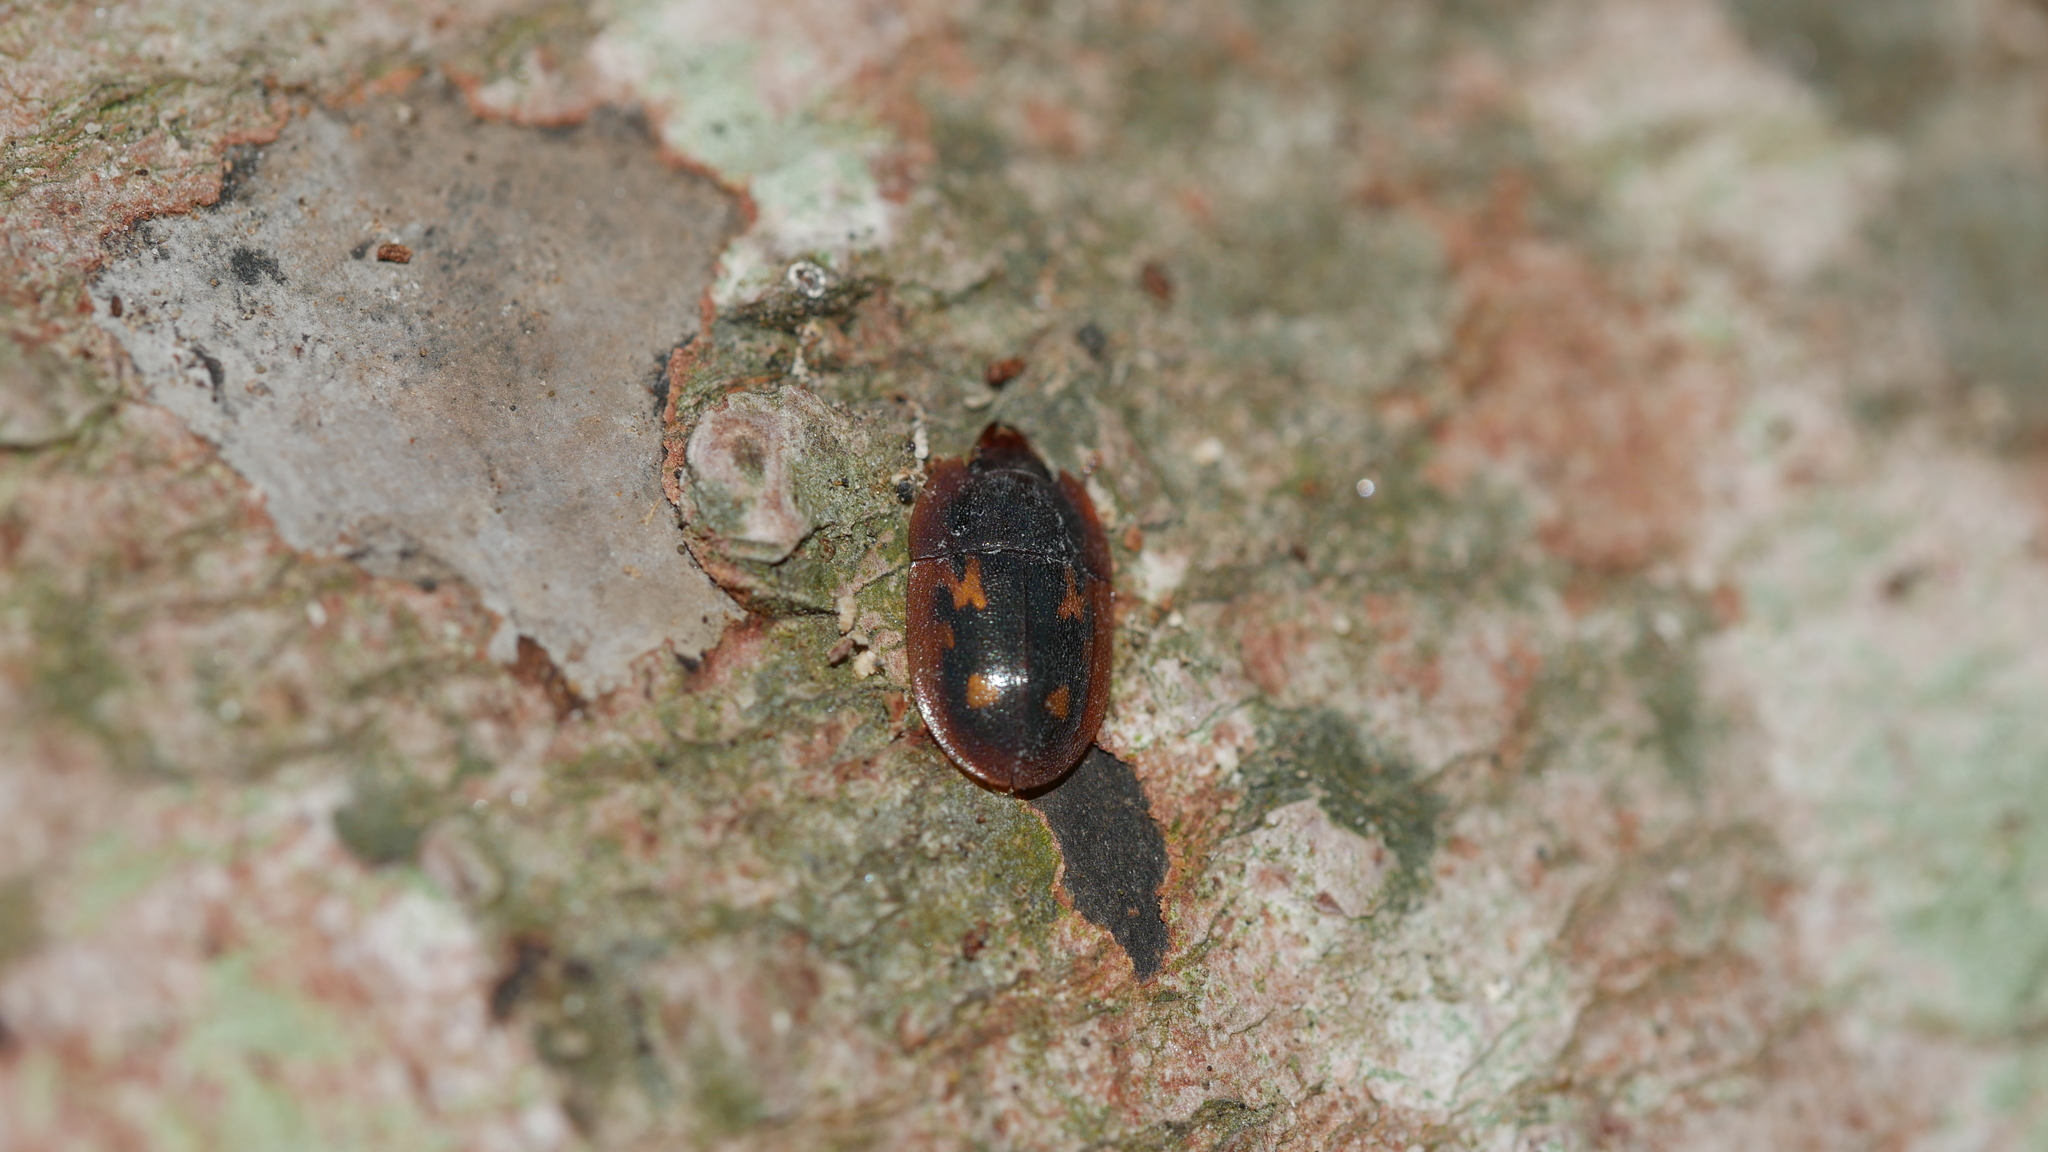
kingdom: Animalia
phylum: Arthropoda
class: Insecta
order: Coleoptera
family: Nitidulidae
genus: Prometopia
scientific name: Prometopia sexmaculata
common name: Six-spotted sap-feeding beetle
